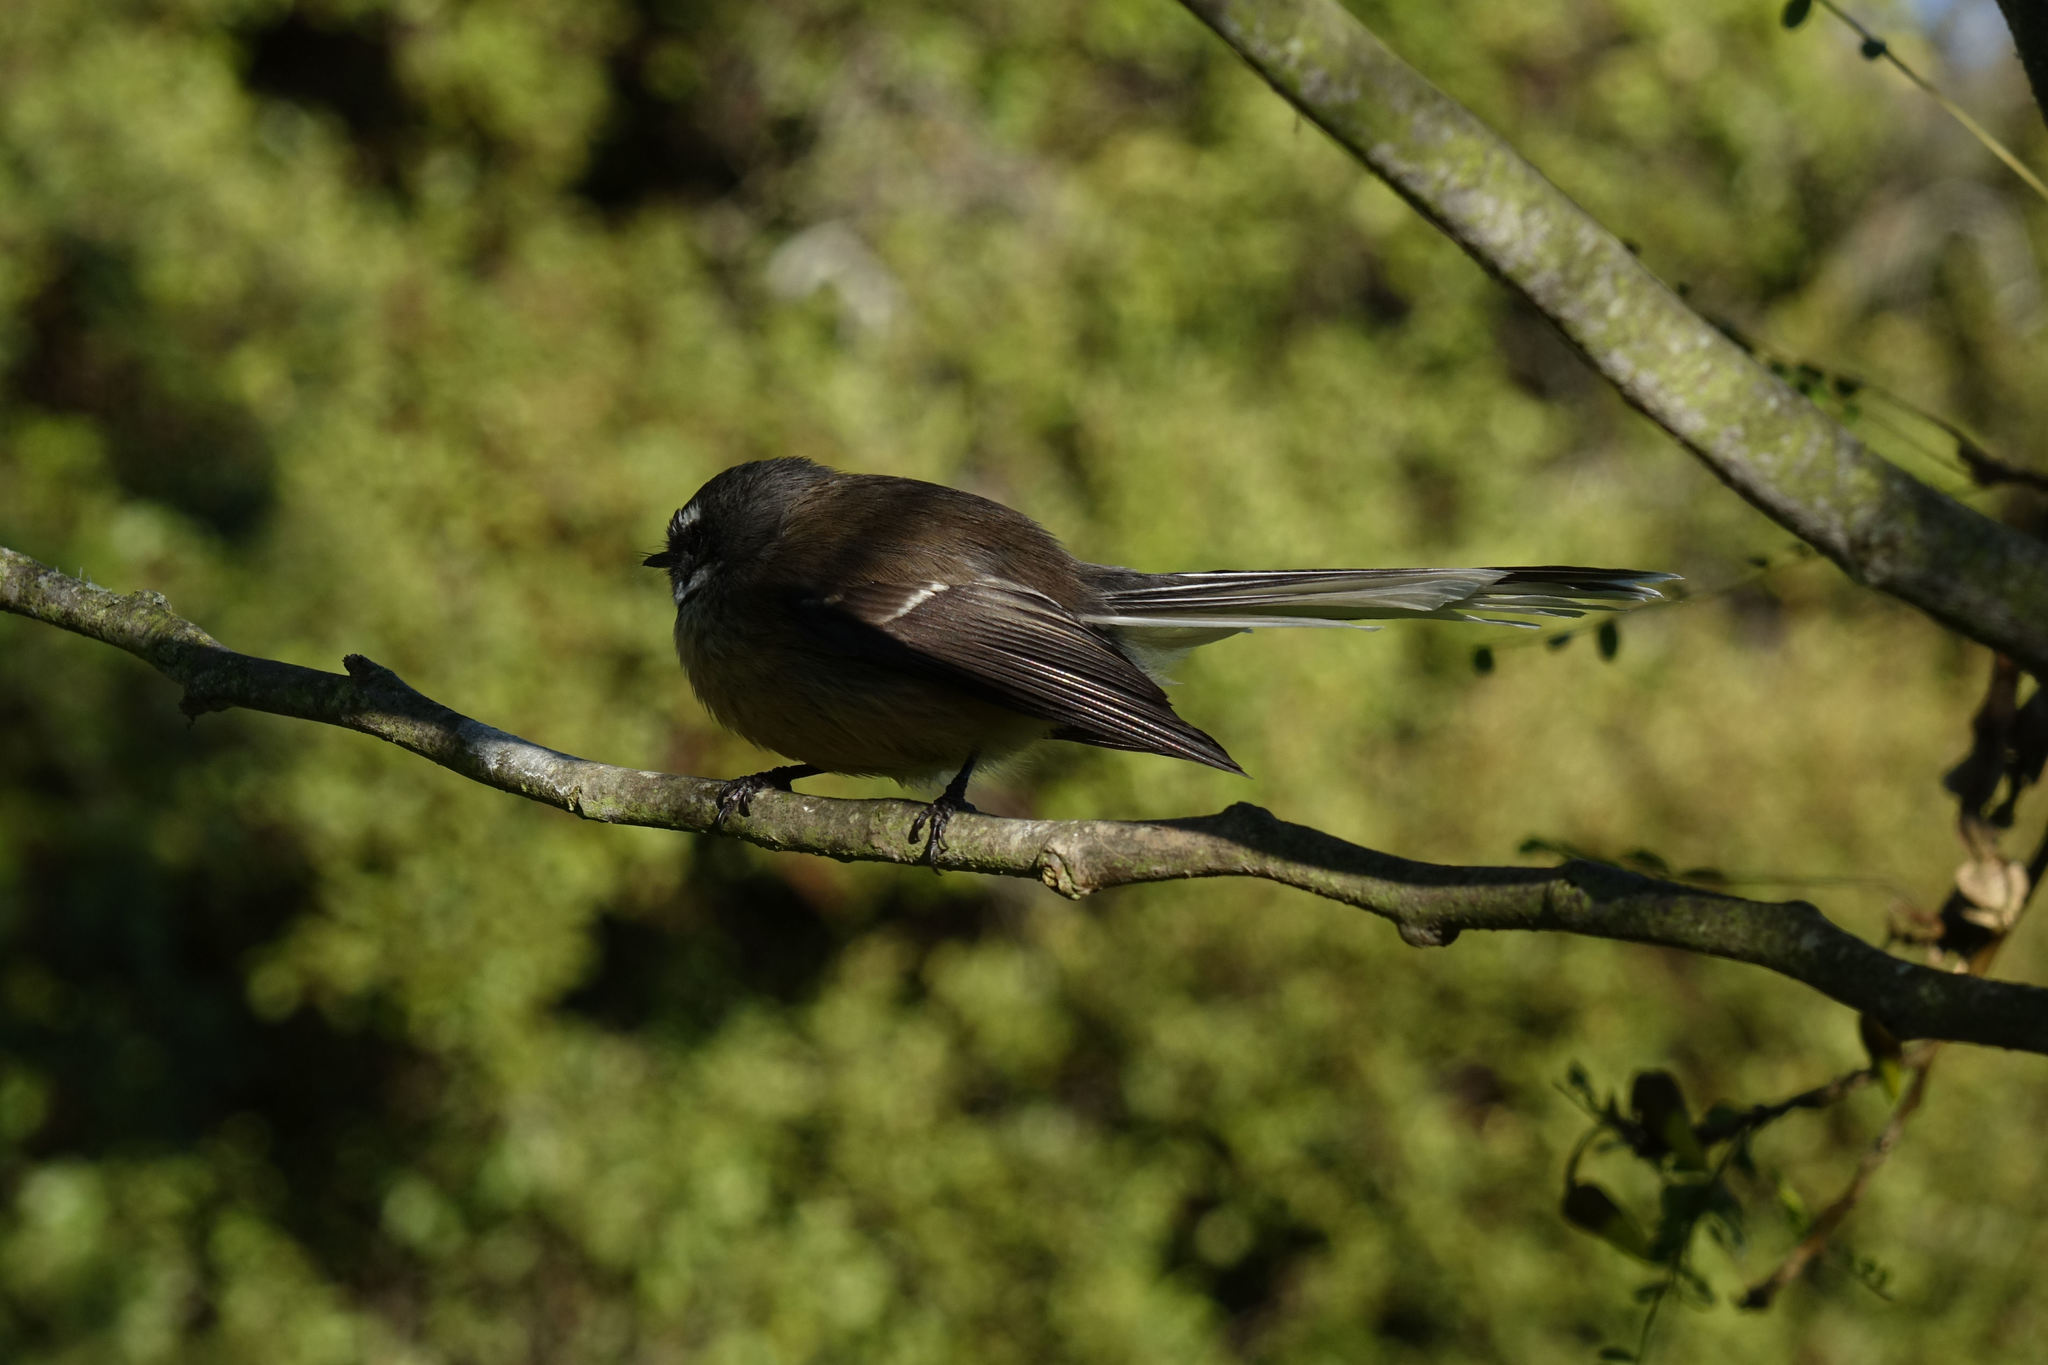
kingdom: Animalia
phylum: Chordata
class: Aves
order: Passeriformes
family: Rhipiduridae
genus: Rhipidura
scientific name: Rhipidura fuliginosa
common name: New zealand fantail
